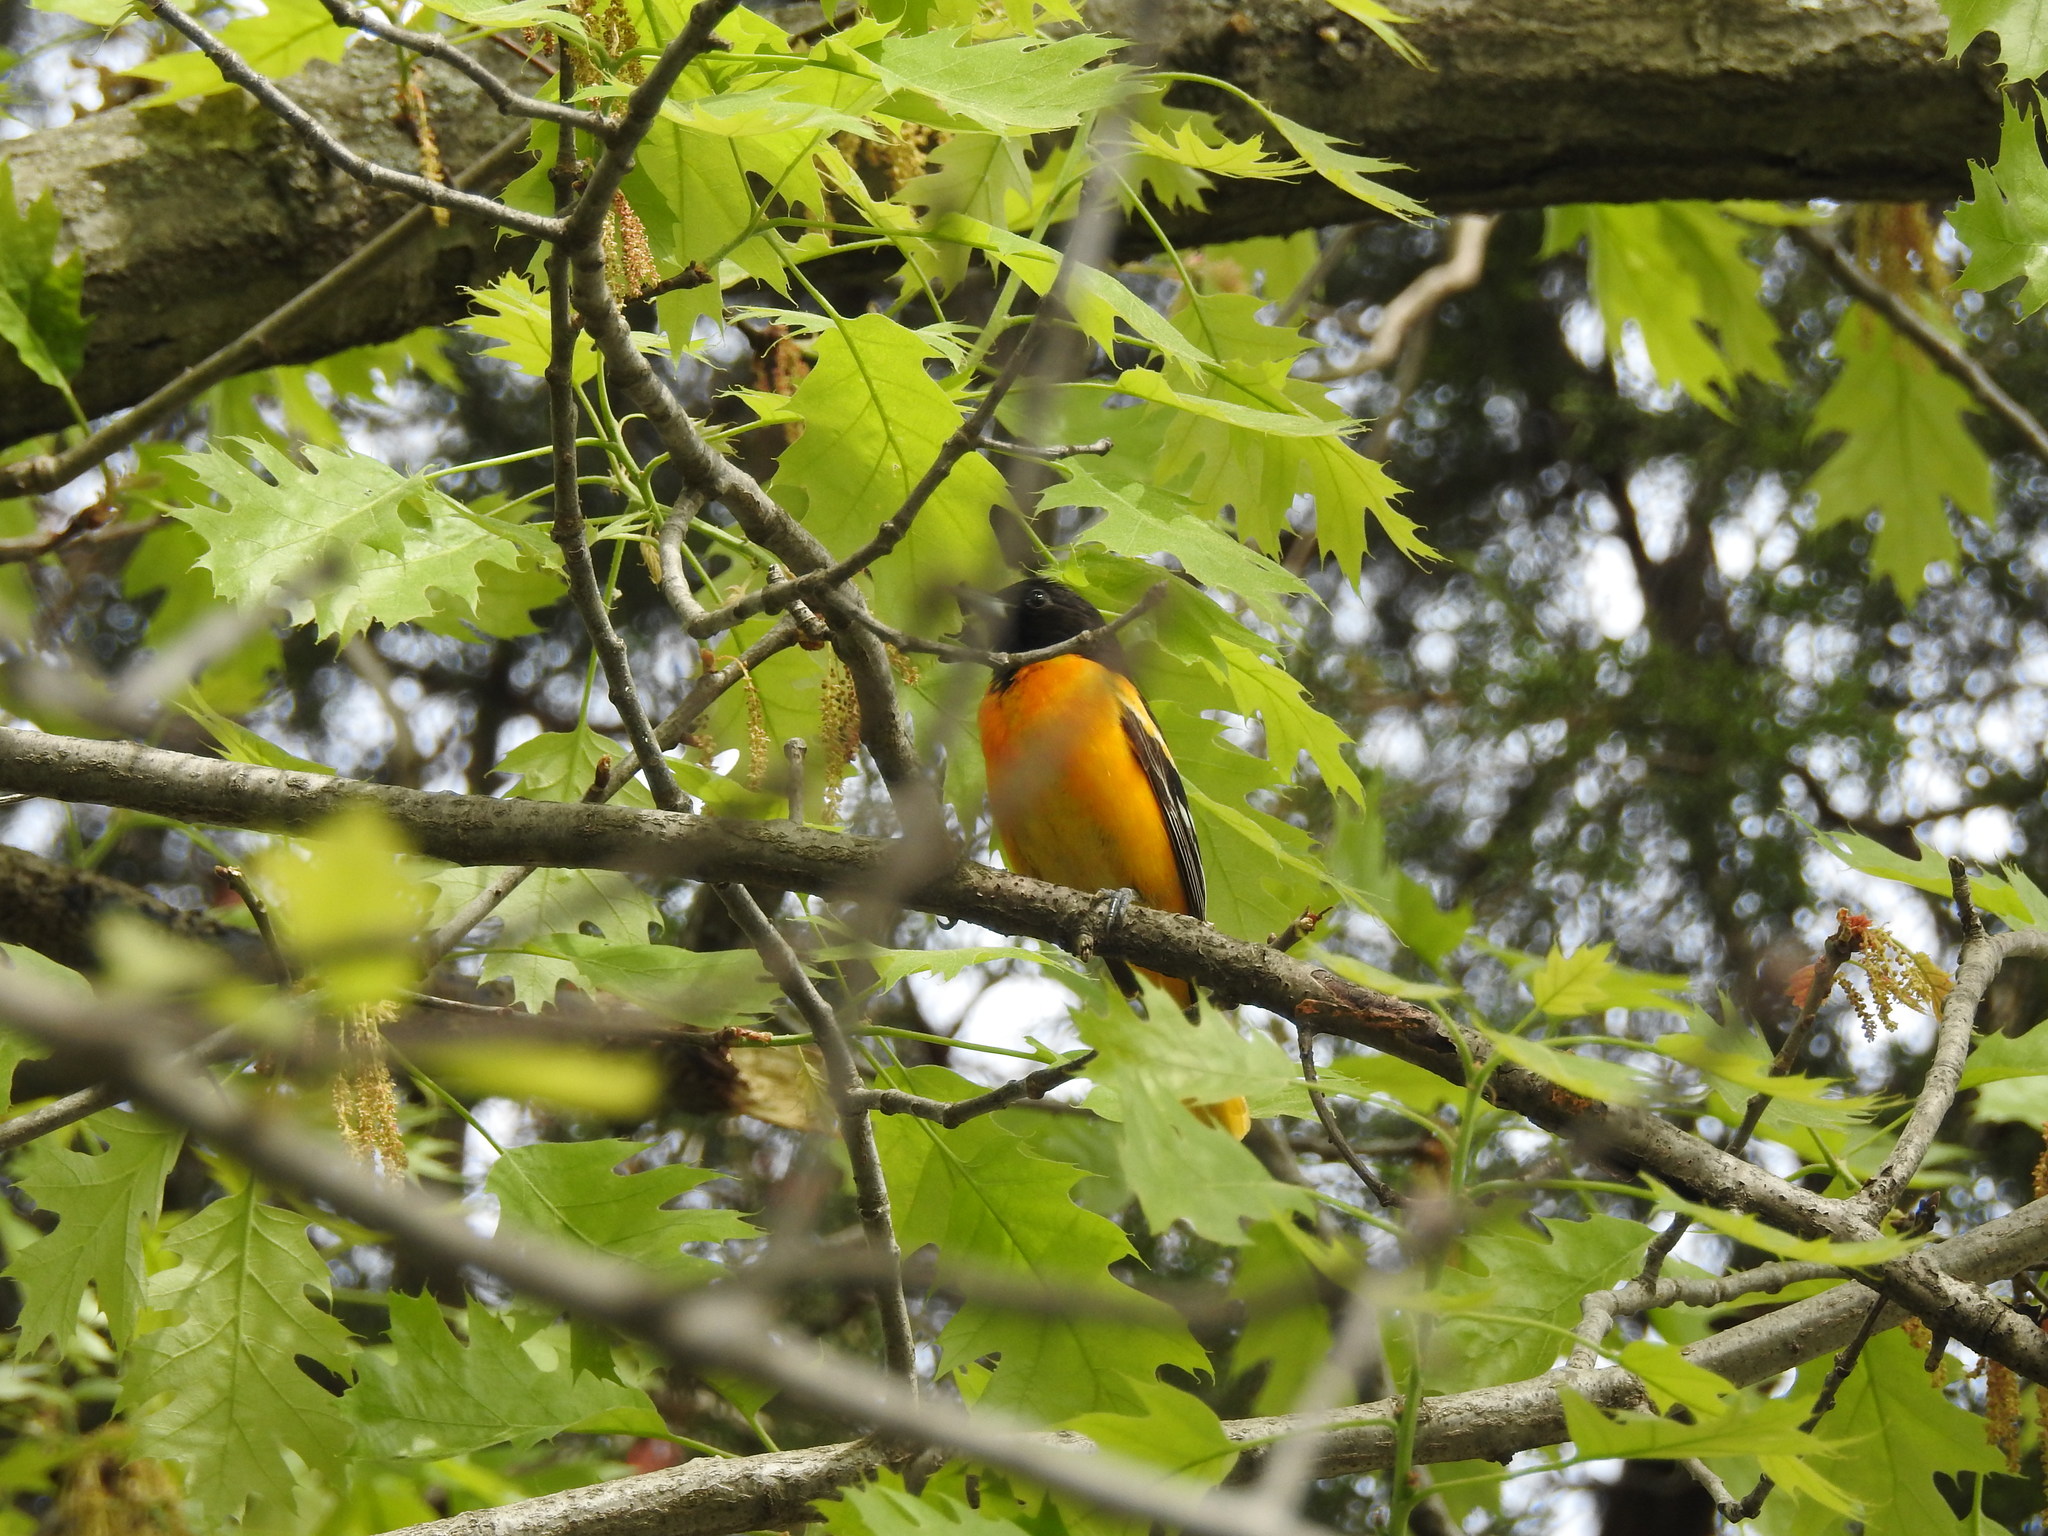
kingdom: Animalia
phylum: Chordata
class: Aves
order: Passeriformes
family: Icteridae
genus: Icterus
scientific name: Icterus galbula
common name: Baltimore oriole
